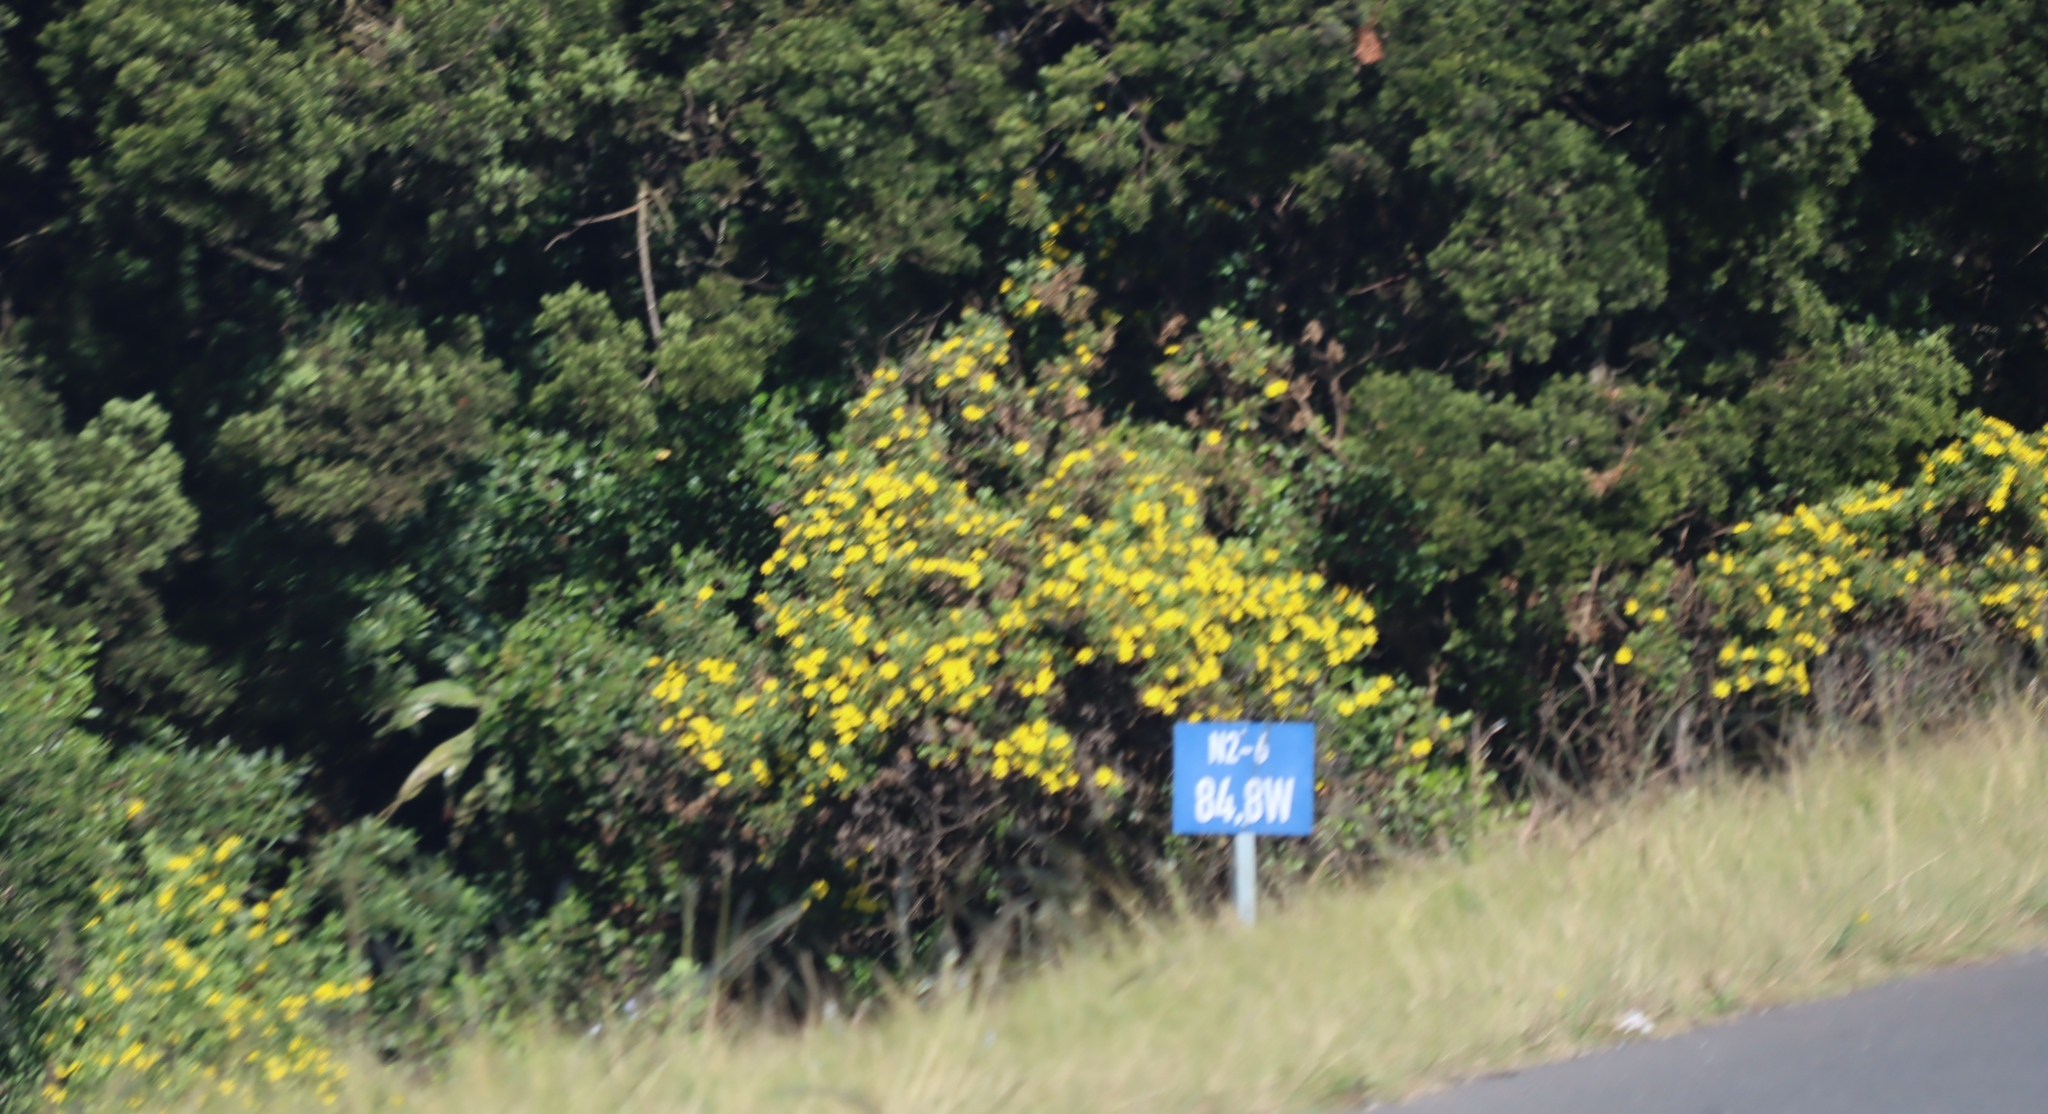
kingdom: Plantae
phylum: Tracheophyta
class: Magnoliopsida
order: Asterales
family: Asteraceae
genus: Osteospermum
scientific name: Osteospermum moniliferum
